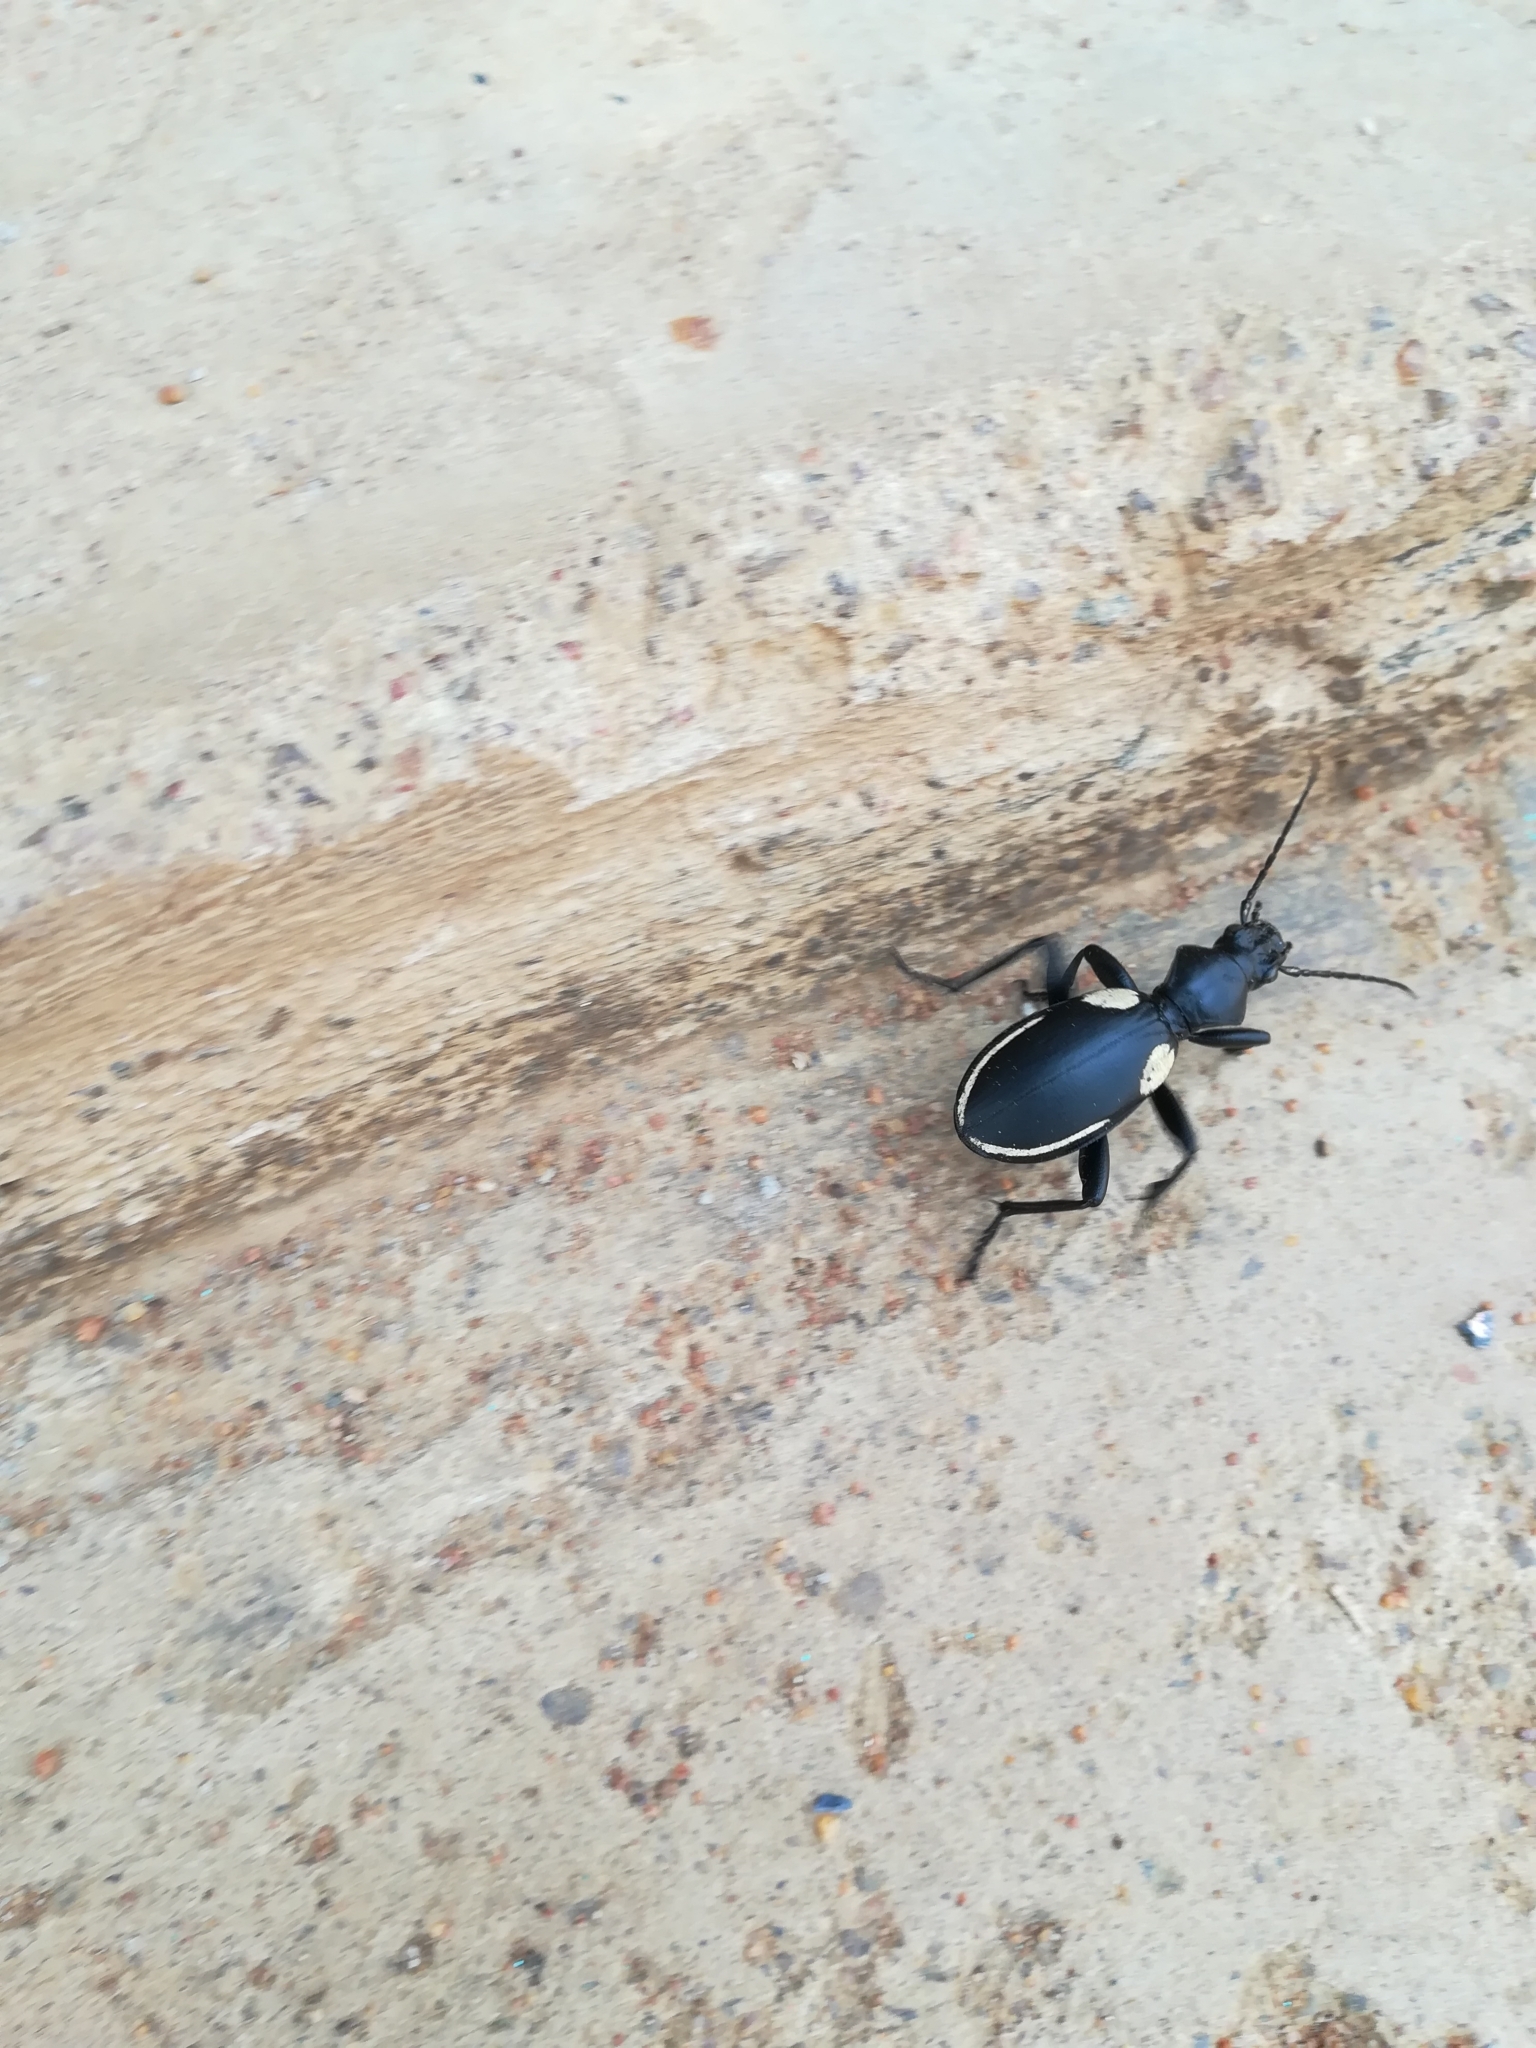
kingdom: Animalia
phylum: Arthropoda
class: Insecta
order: Coleoptera
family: Carabidae
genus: Anthia
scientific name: Anthia
